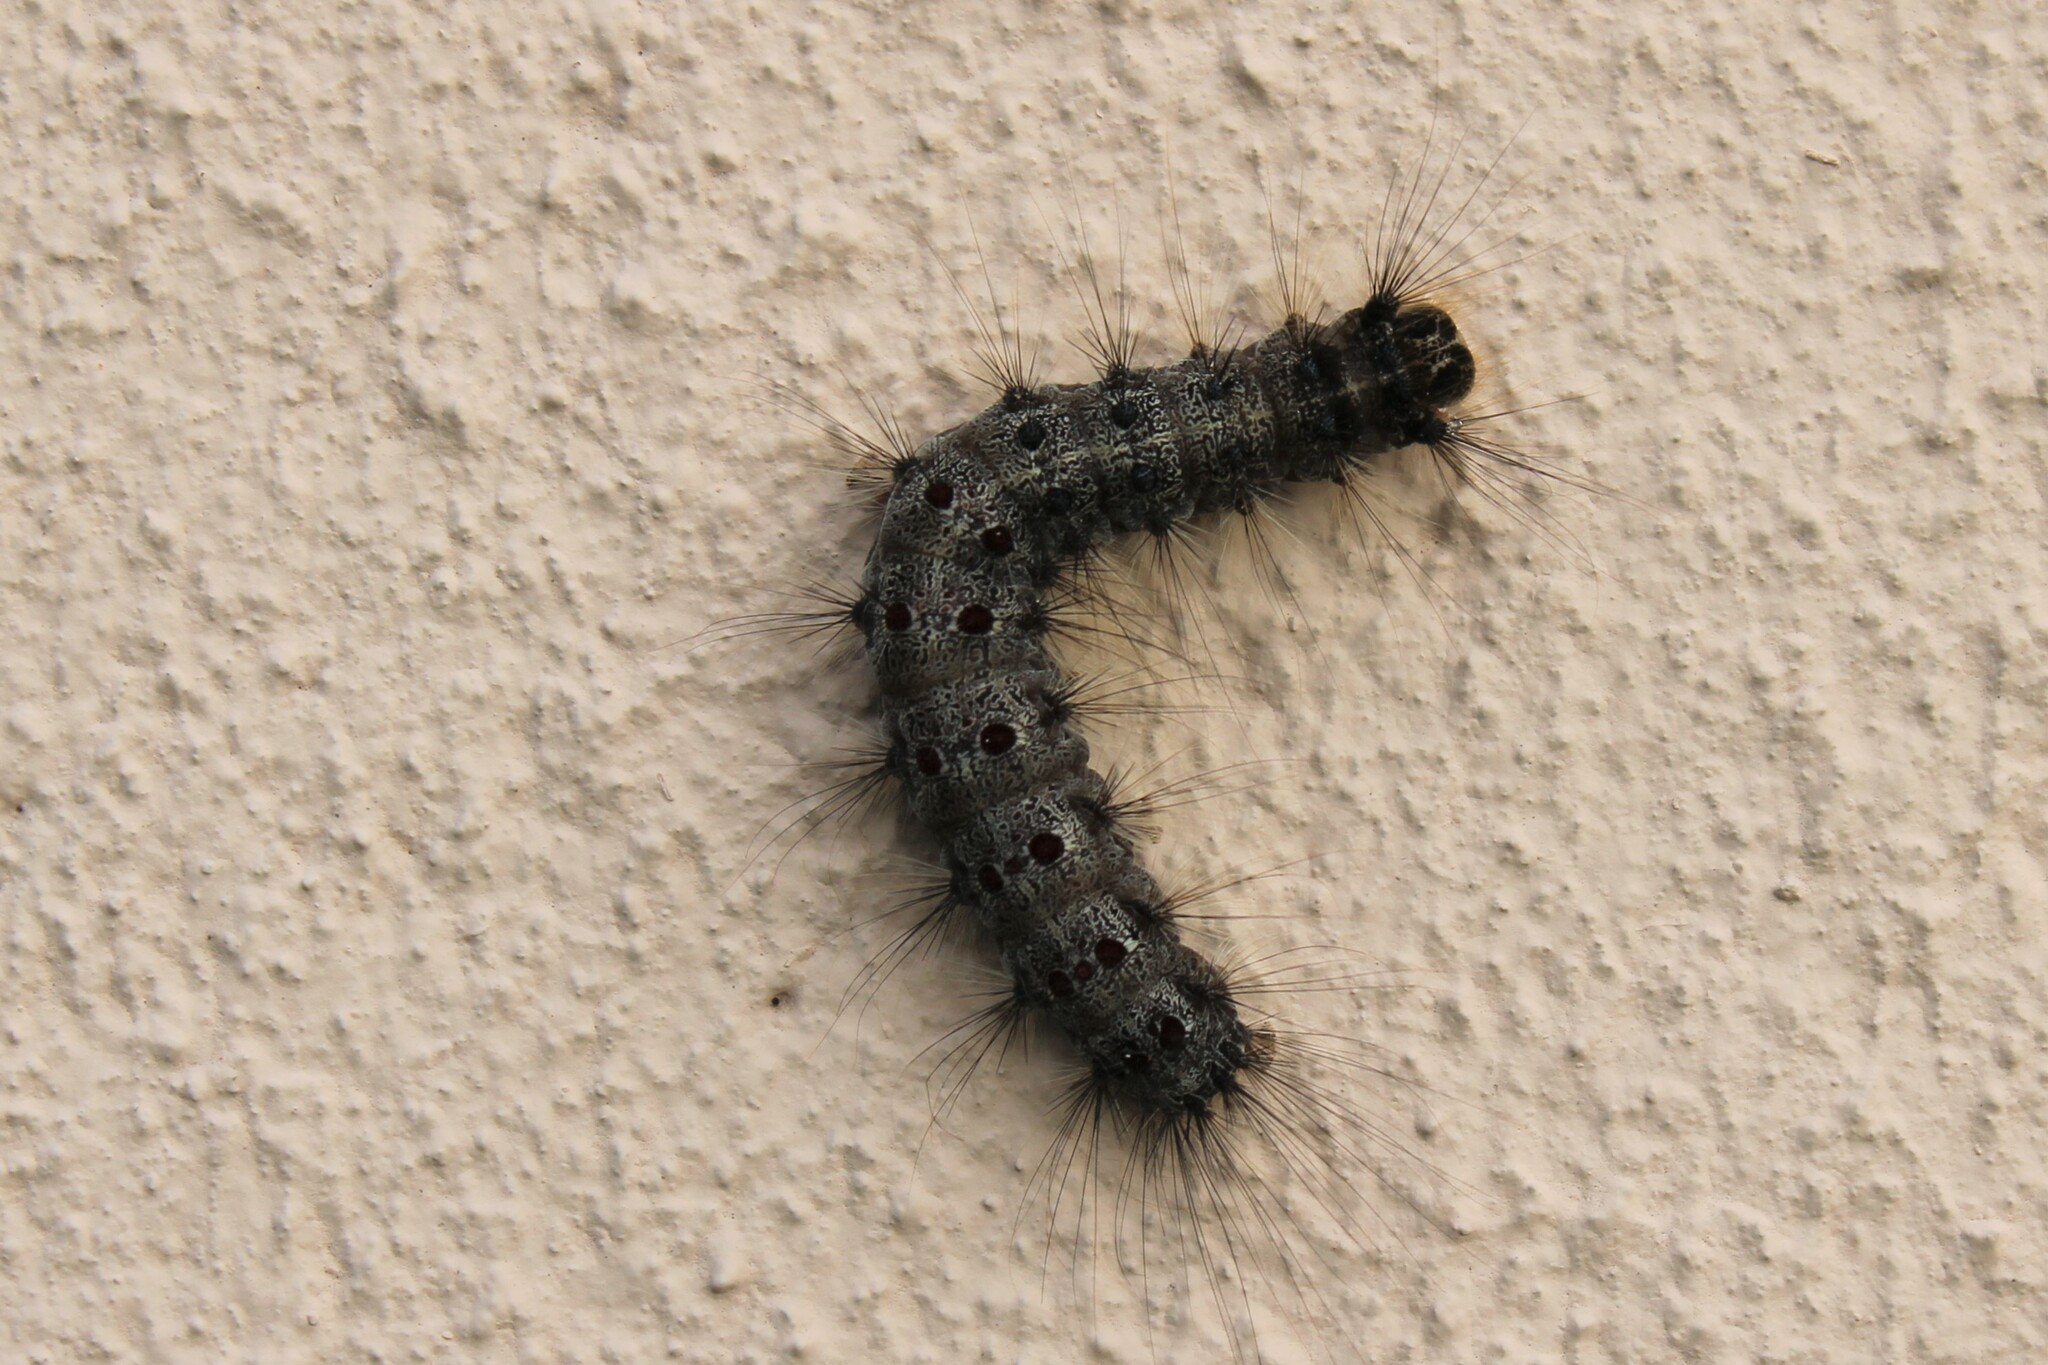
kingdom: Animalia
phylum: Arthropoda
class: Insecta
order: Lepidoptera
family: Erebidae
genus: Lymantria
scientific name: Lymantria dispar
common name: Gypsy moth
